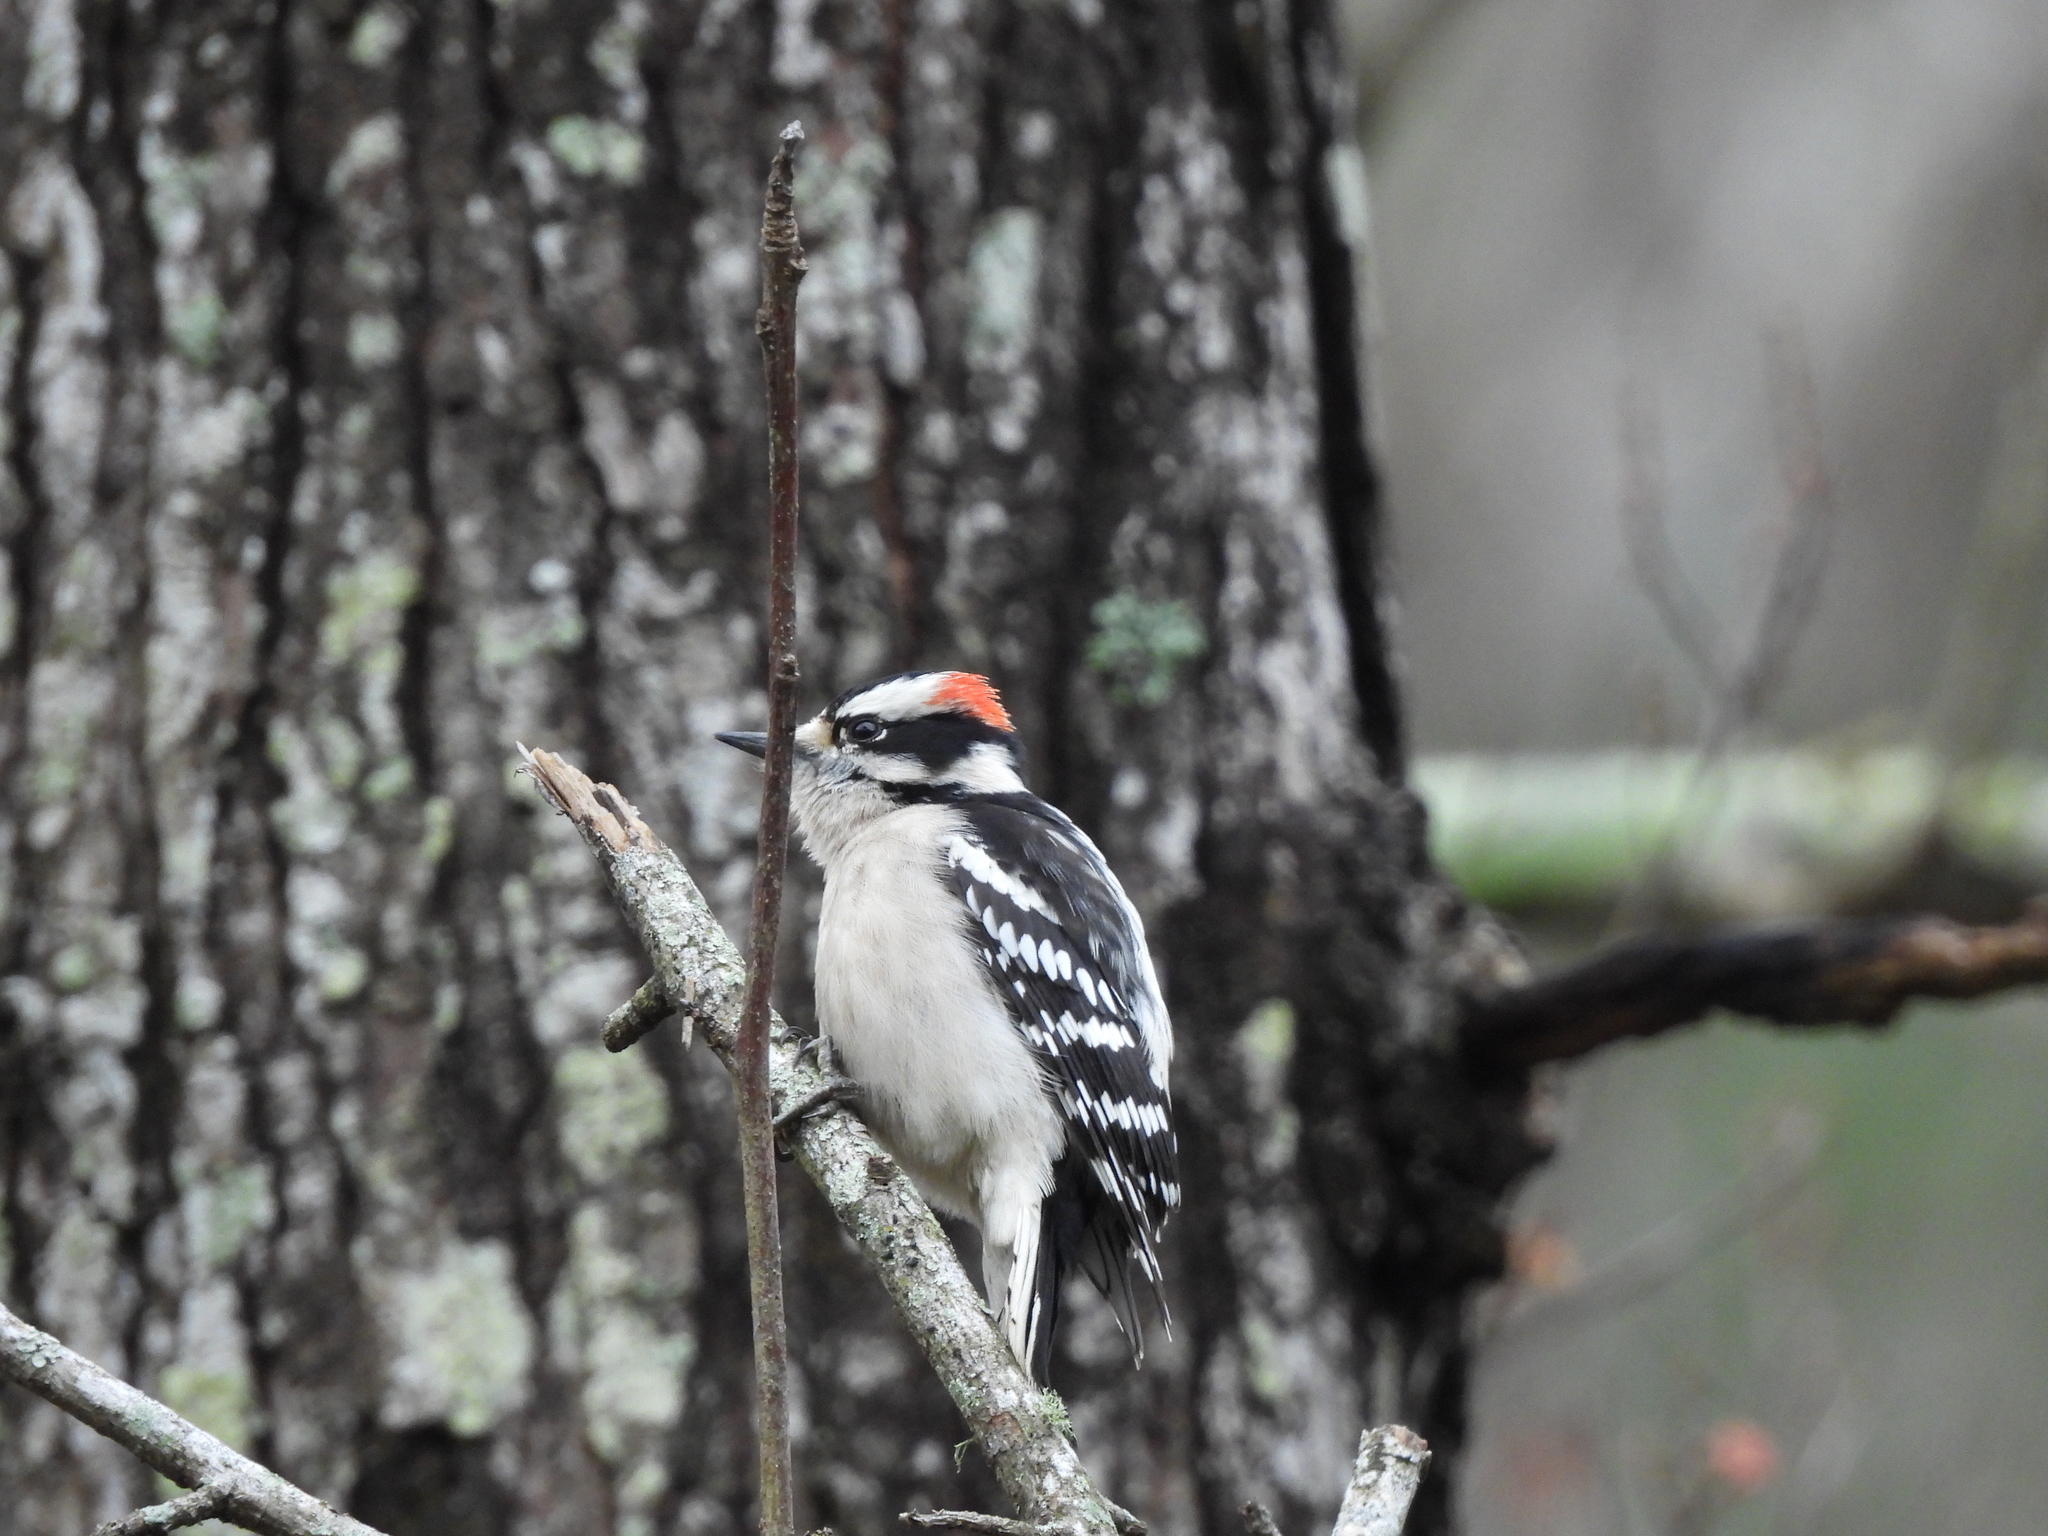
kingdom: Animalia
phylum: Chordata
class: Aves
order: Piciformes
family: Picidae
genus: Dryobates
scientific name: Dryobates pubescens
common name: Downy woodpecker
